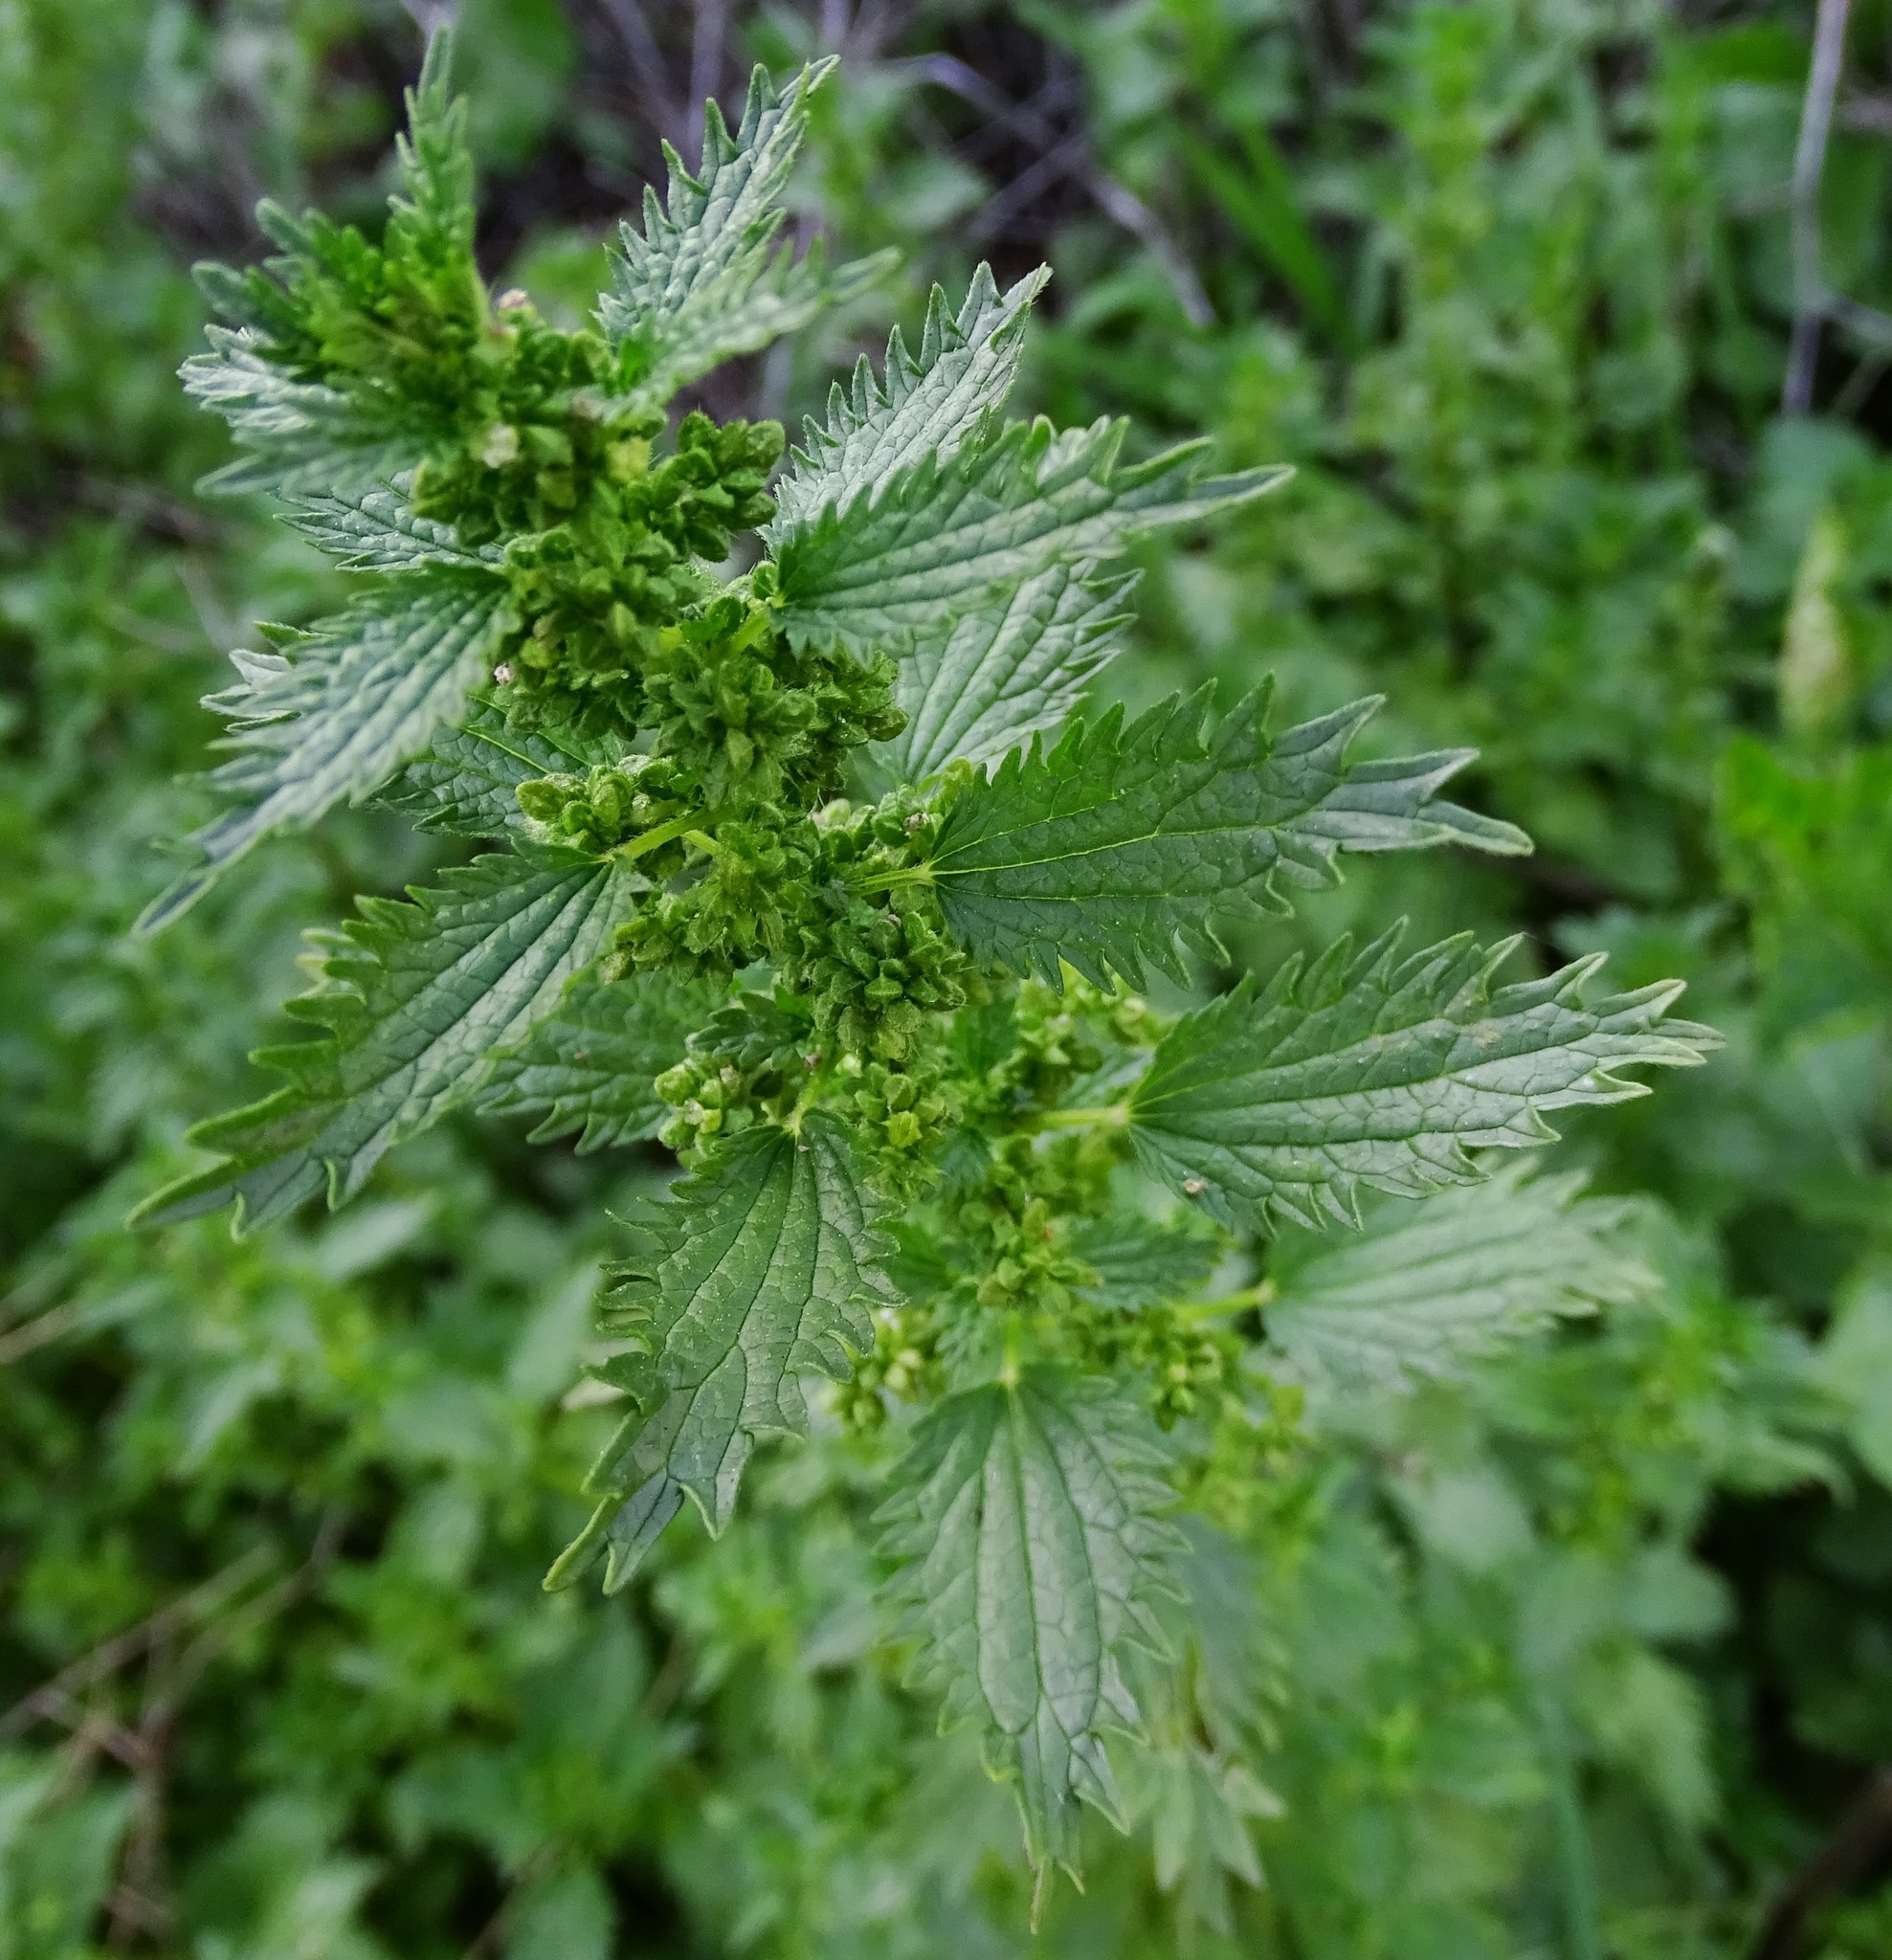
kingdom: Plantae
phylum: Tracheophyta
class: Magnoliopsida
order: Rosales
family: Urticaceae
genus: Urtica
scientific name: Urtica urens
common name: Dwarf nettle
